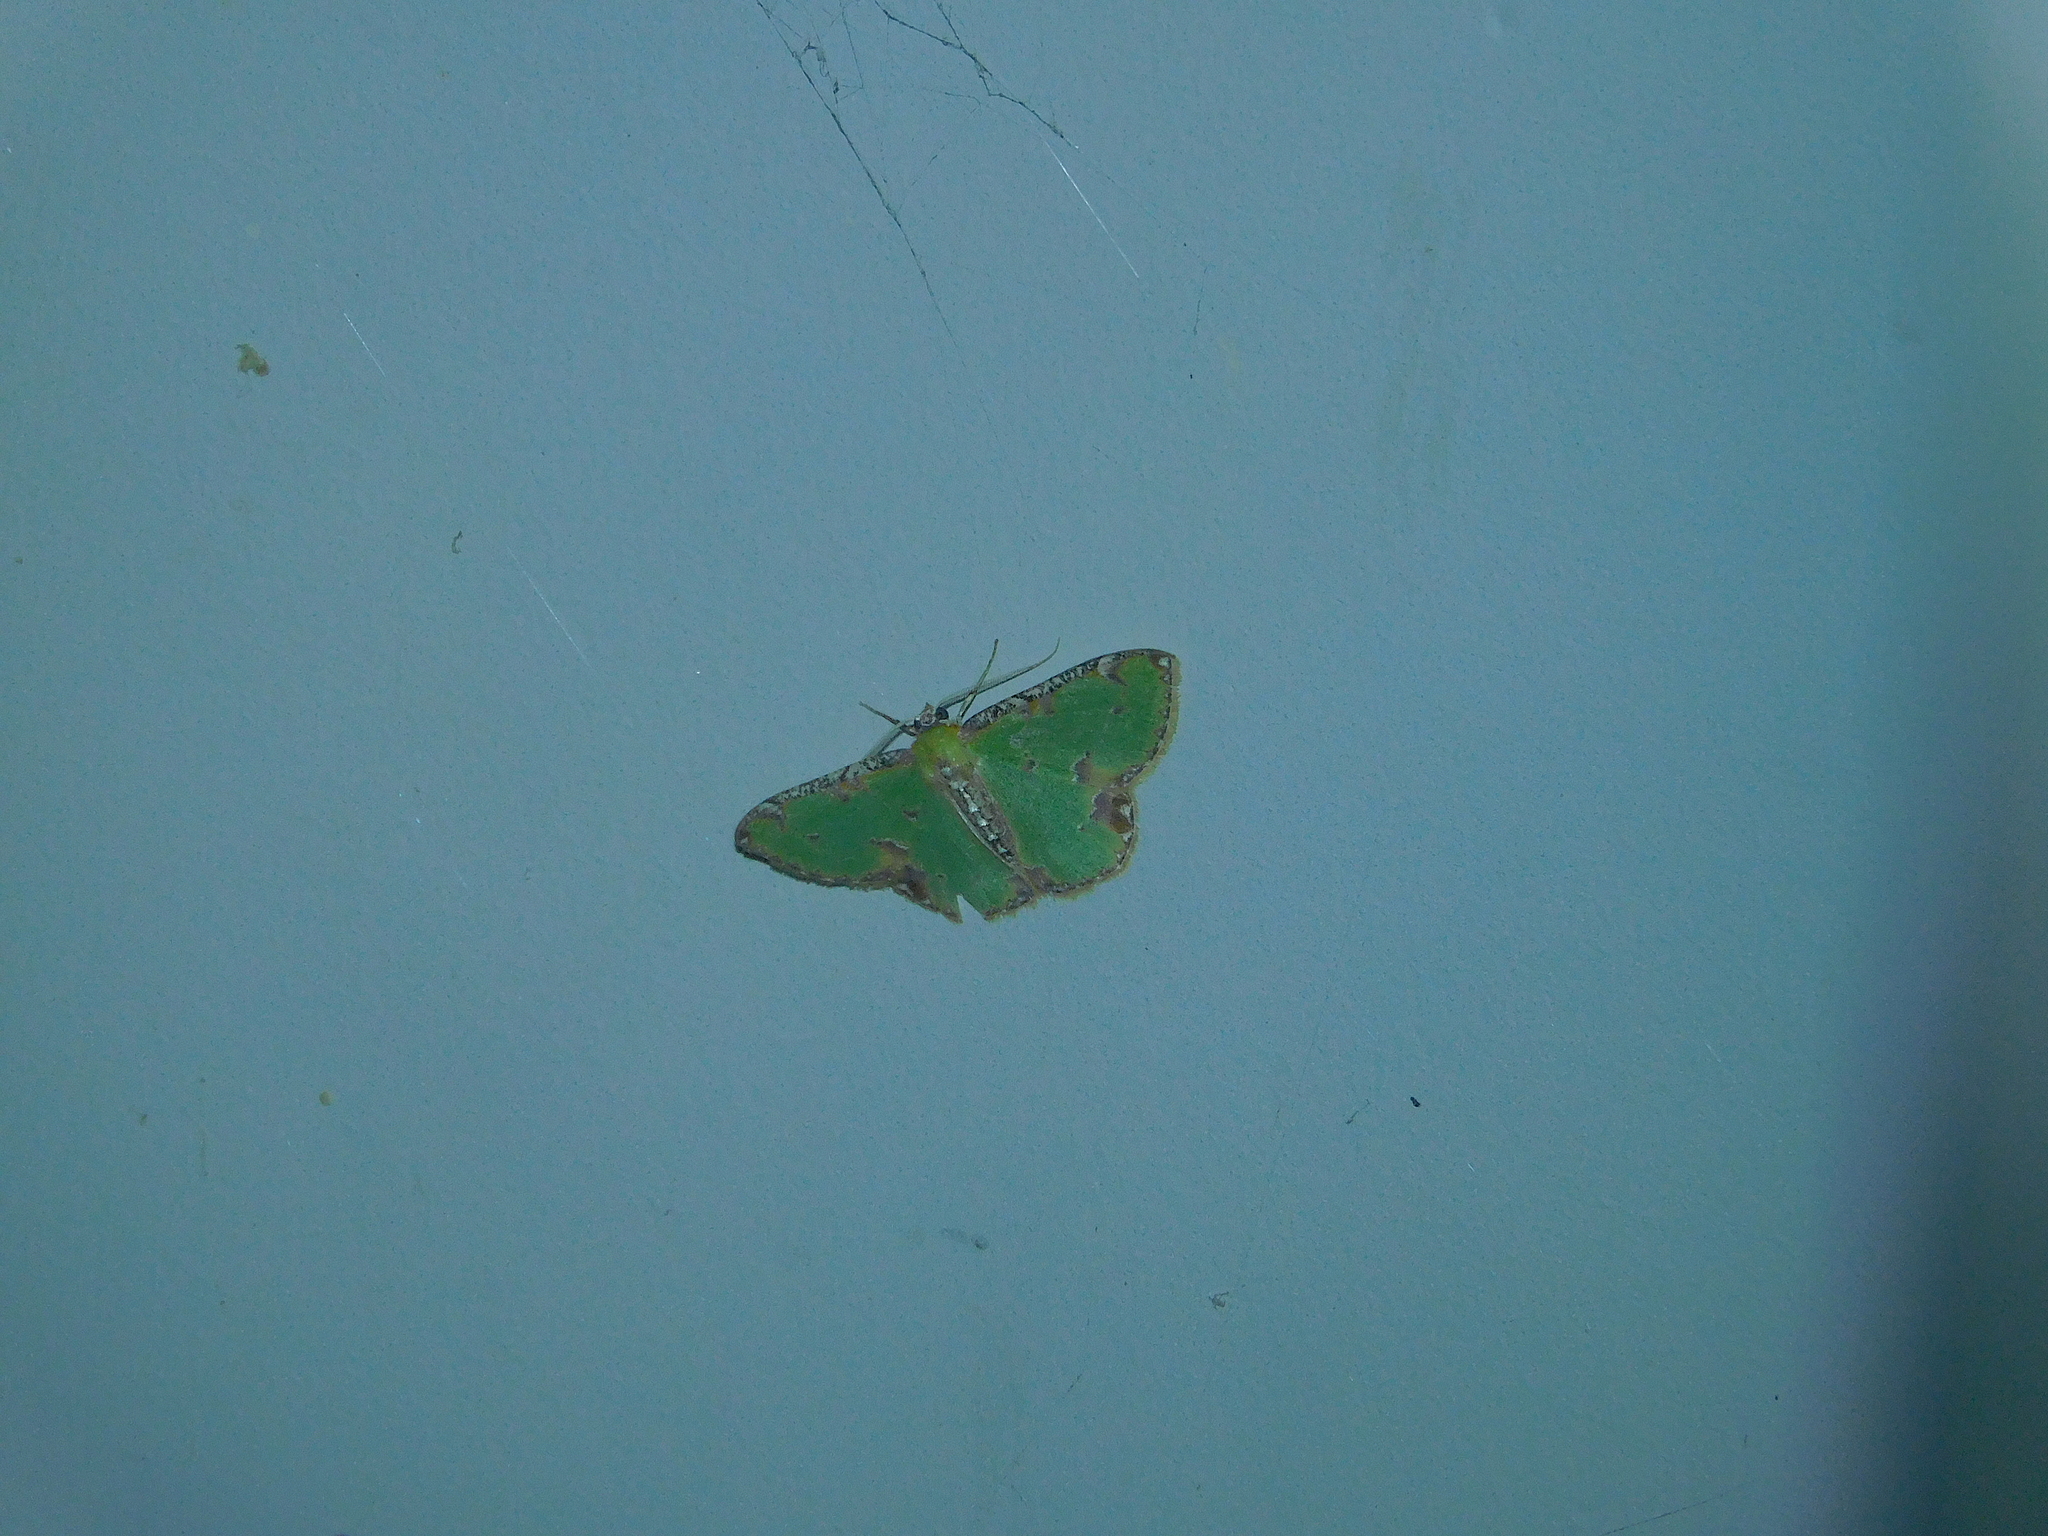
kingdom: Animalia
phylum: Arthropoda
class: Insecta
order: Lepidoptera
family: Geometridae
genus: Eucyclodes
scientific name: Eucyclodes buprestaria
